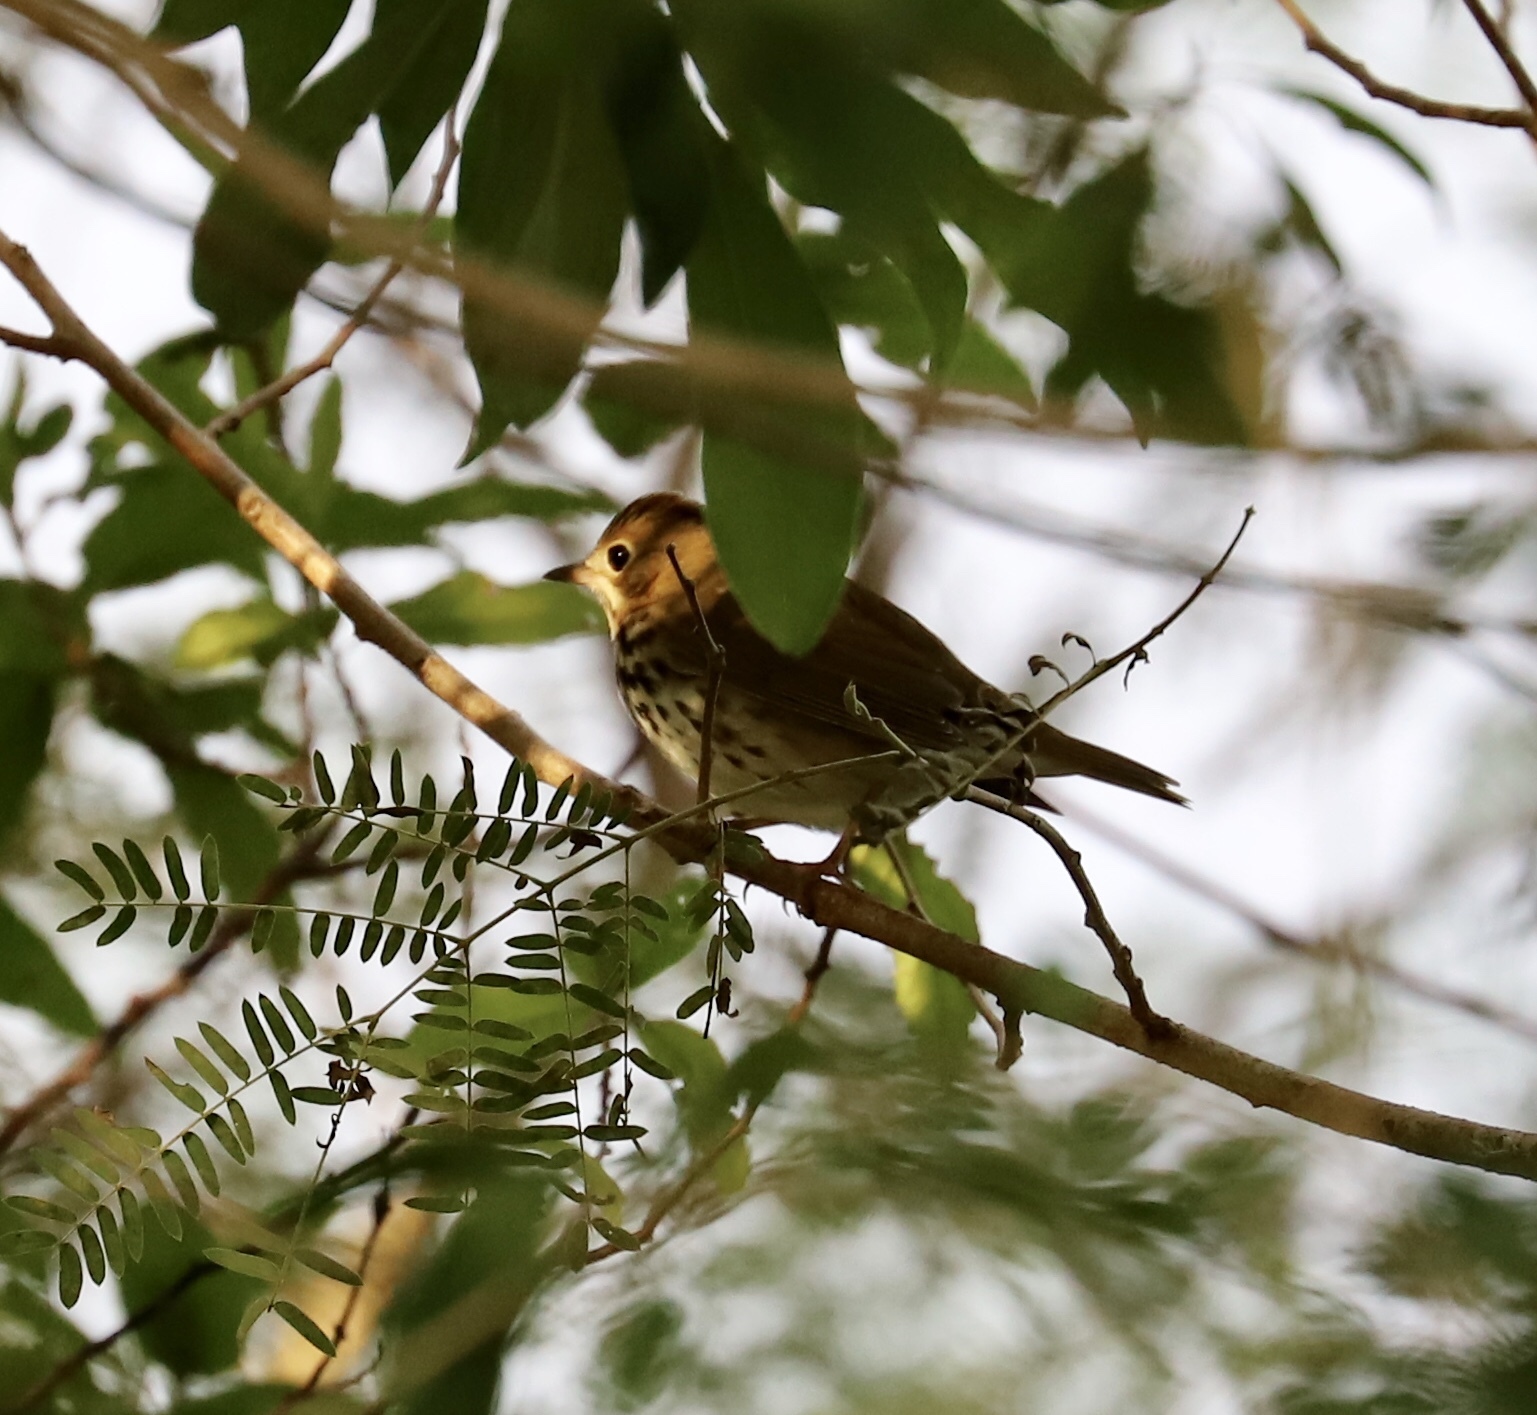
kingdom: Animalia
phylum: Chordata
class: Aves
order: Passeriformes
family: Parulidae
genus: Seiurus
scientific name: Seiurus aurocapilla
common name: Ovenbird
